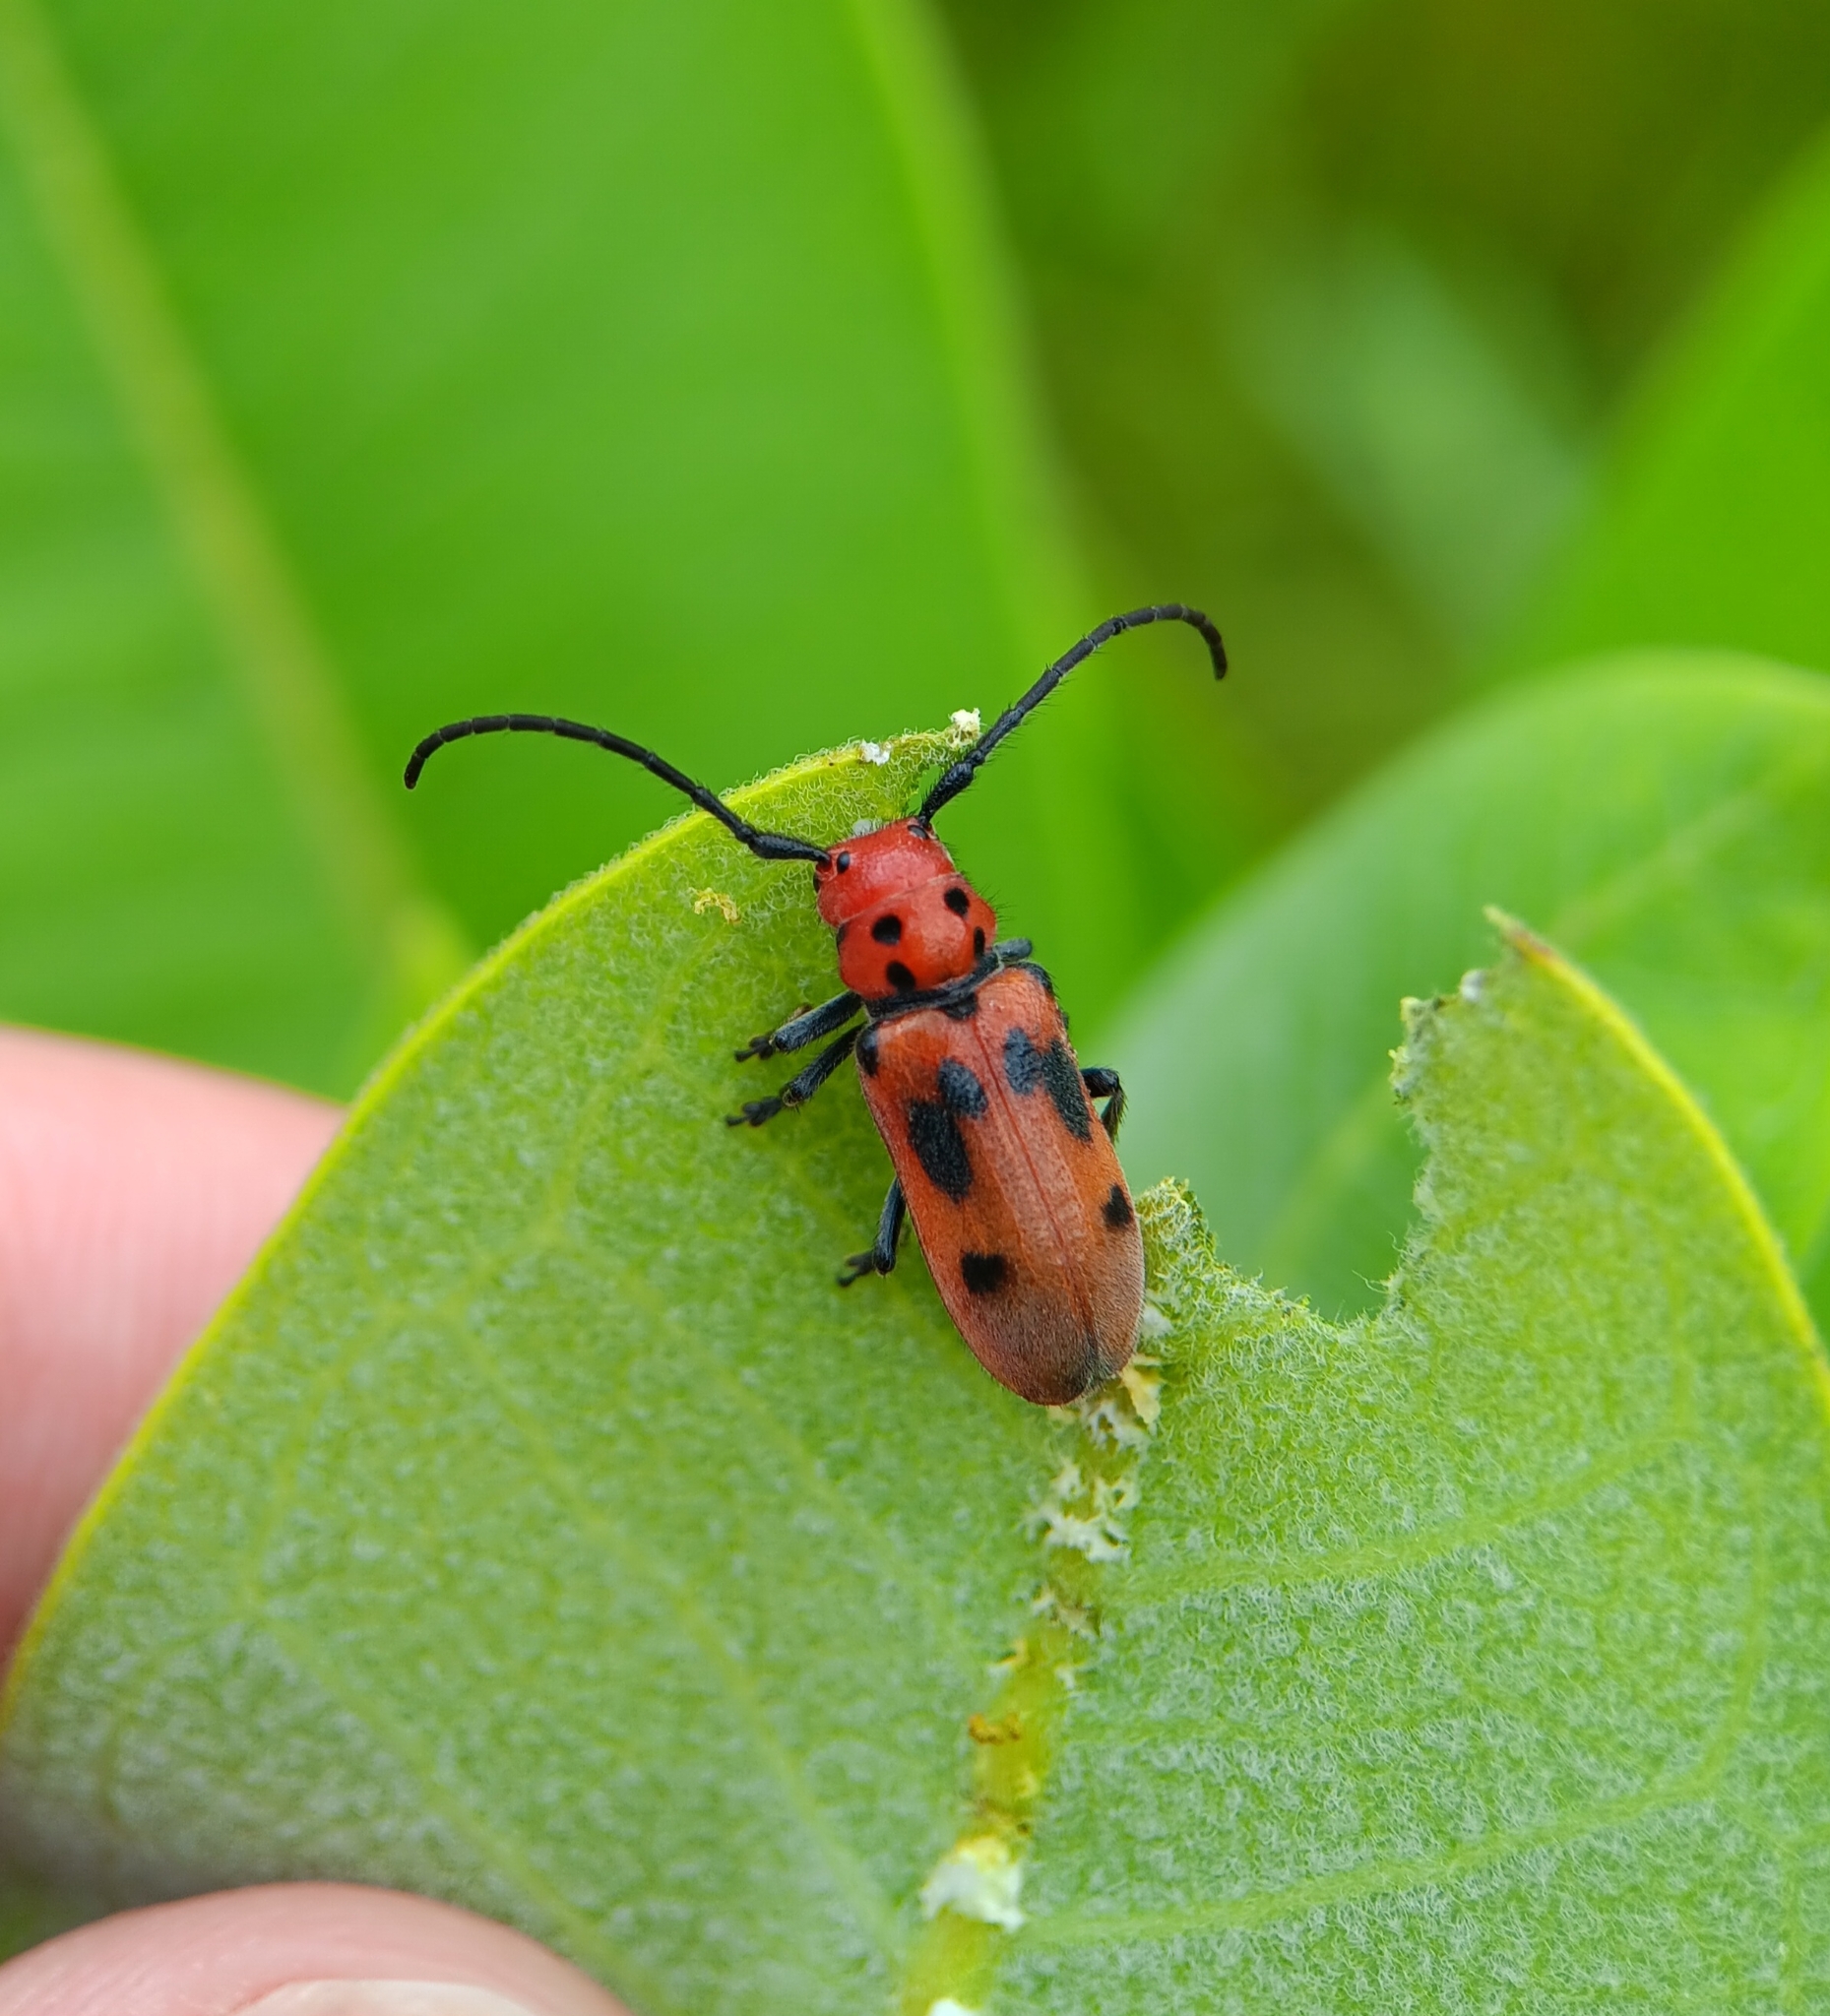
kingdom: Animalia
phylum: Arthropoda
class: Insecta
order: Coleoptera
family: Cerambycidae
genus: Tetraopes
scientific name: Tetraopes tetrophthalmus
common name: Red milkweed beetle
